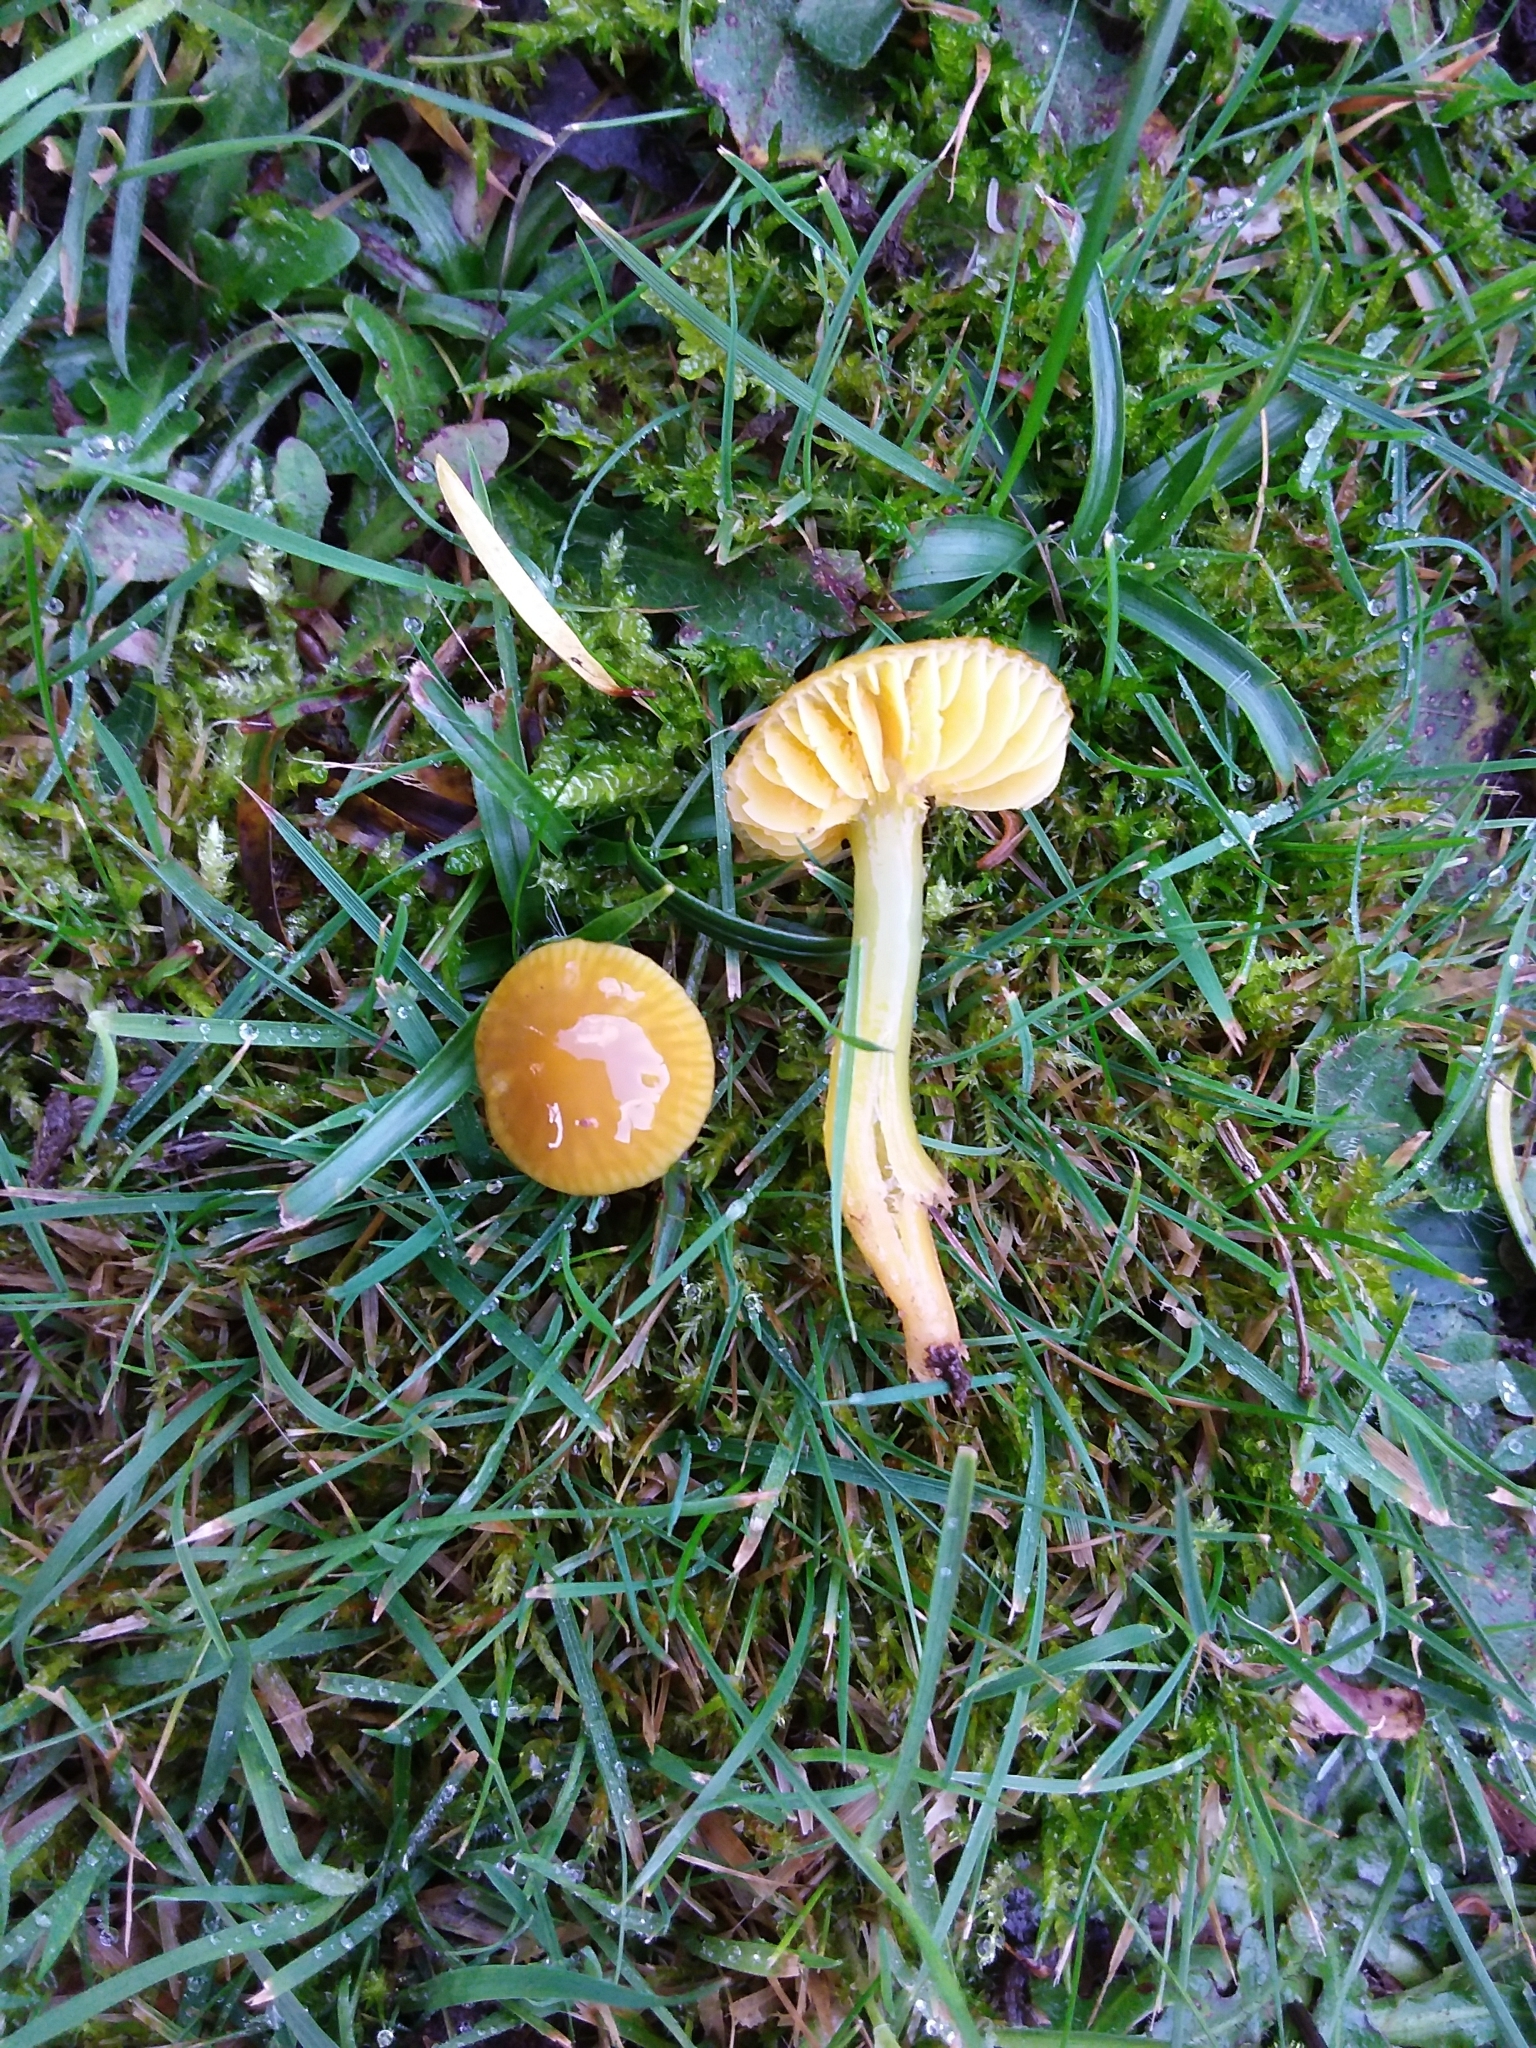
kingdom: Fungi
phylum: Basidiomycota
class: Agaricomycetes
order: Agaricales
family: Hygrophoraceae
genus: Gliophorus
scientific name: Gliophorus psittacinus
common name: Parrot wax-cap
